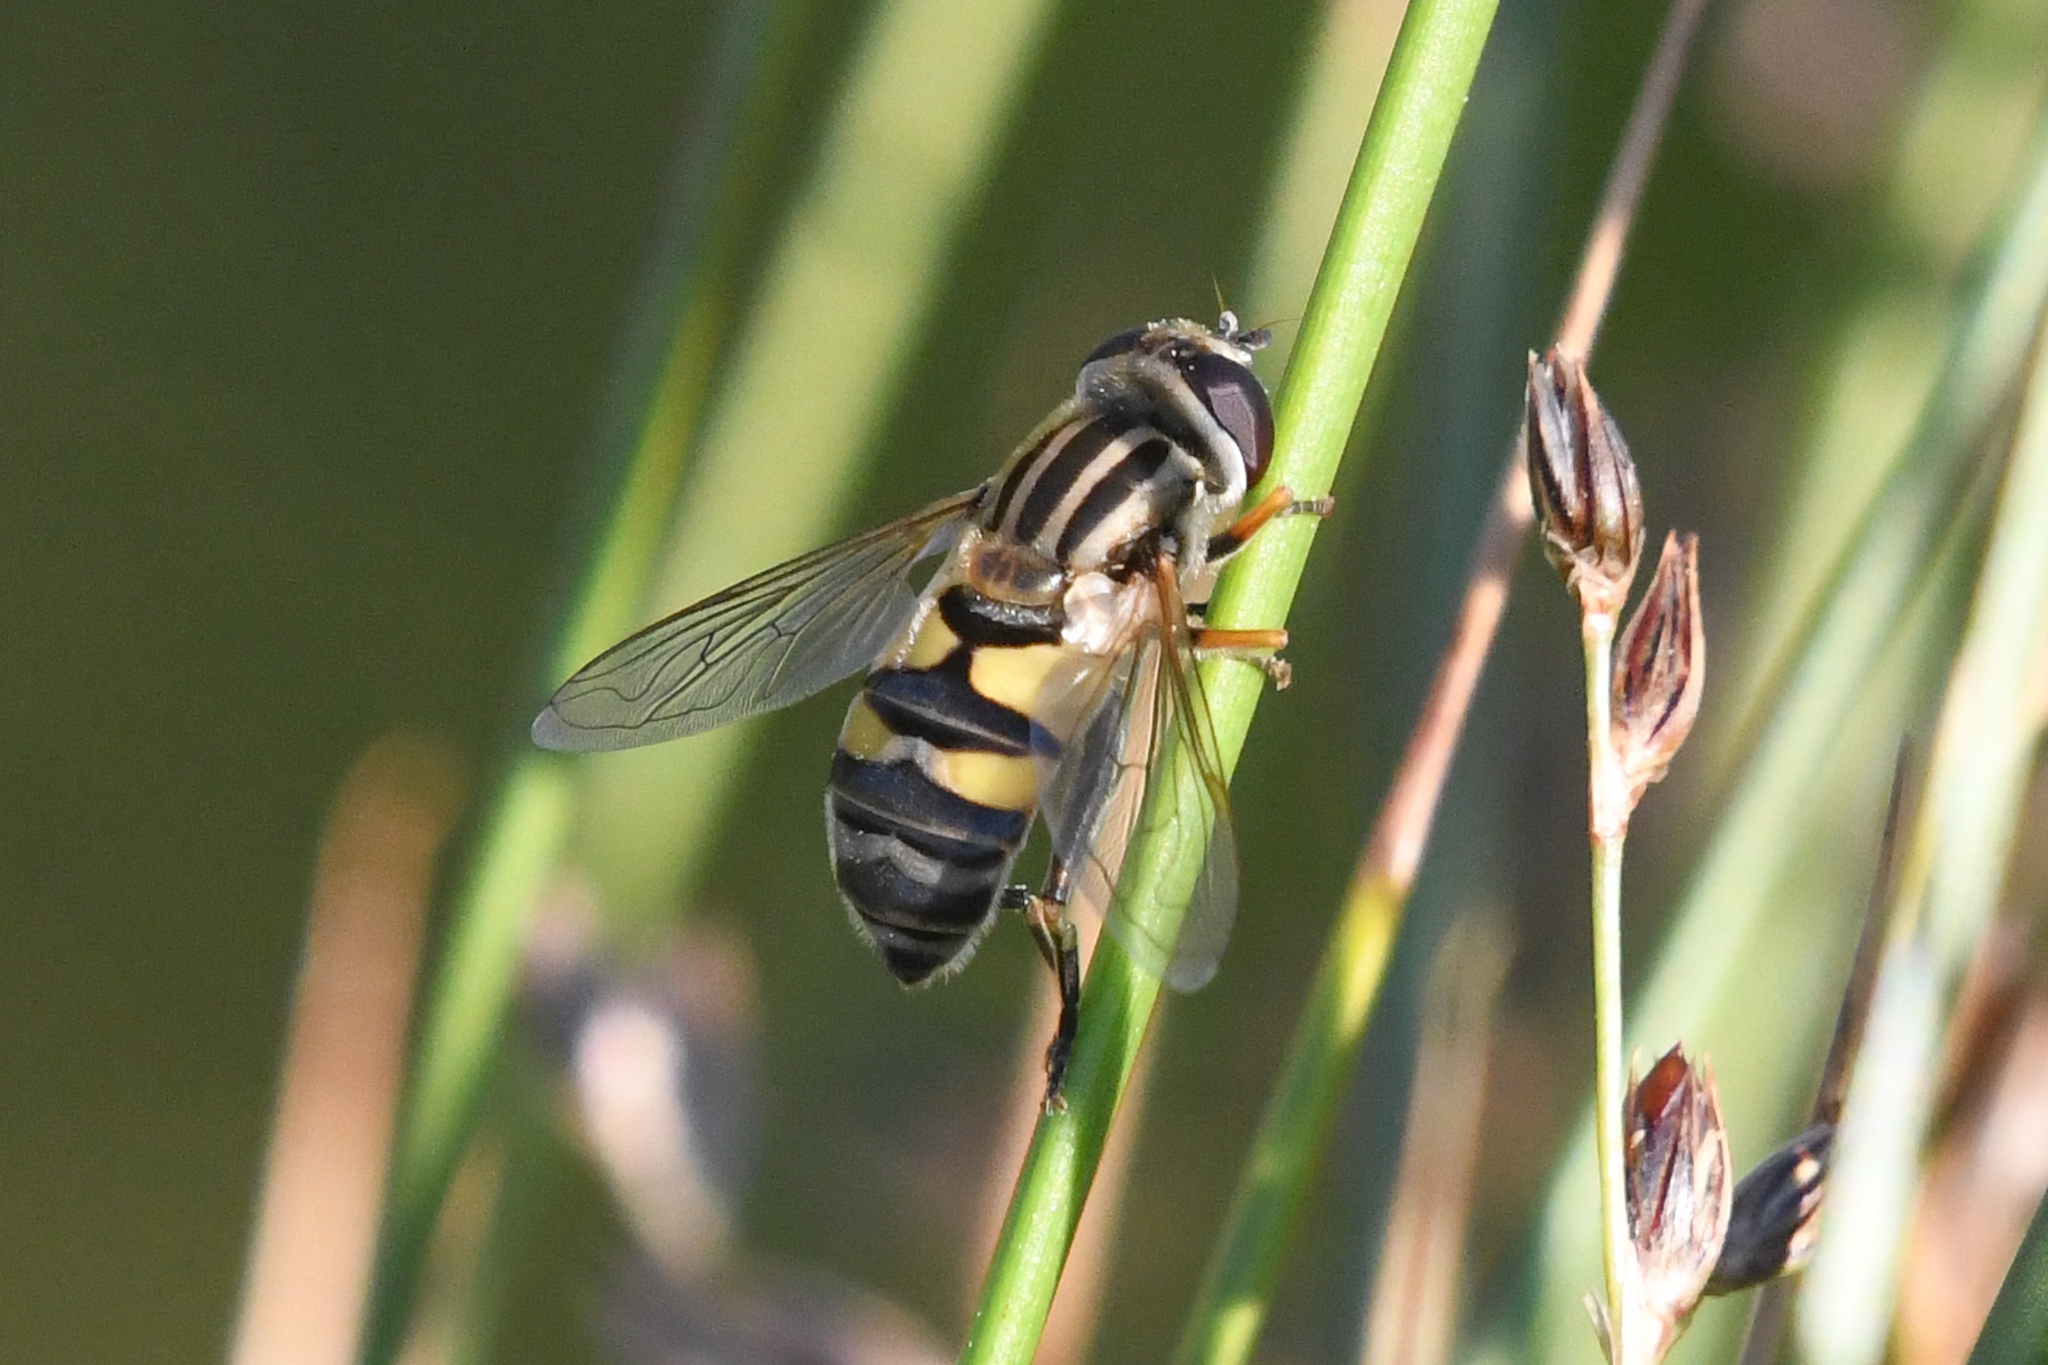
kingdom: Animalia
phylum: Arthropoda
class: Insecta
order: Diptera
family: Syrphidae
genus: Helophilus
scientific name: Helophilus latifrons
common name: Broad-headed marsh fly
